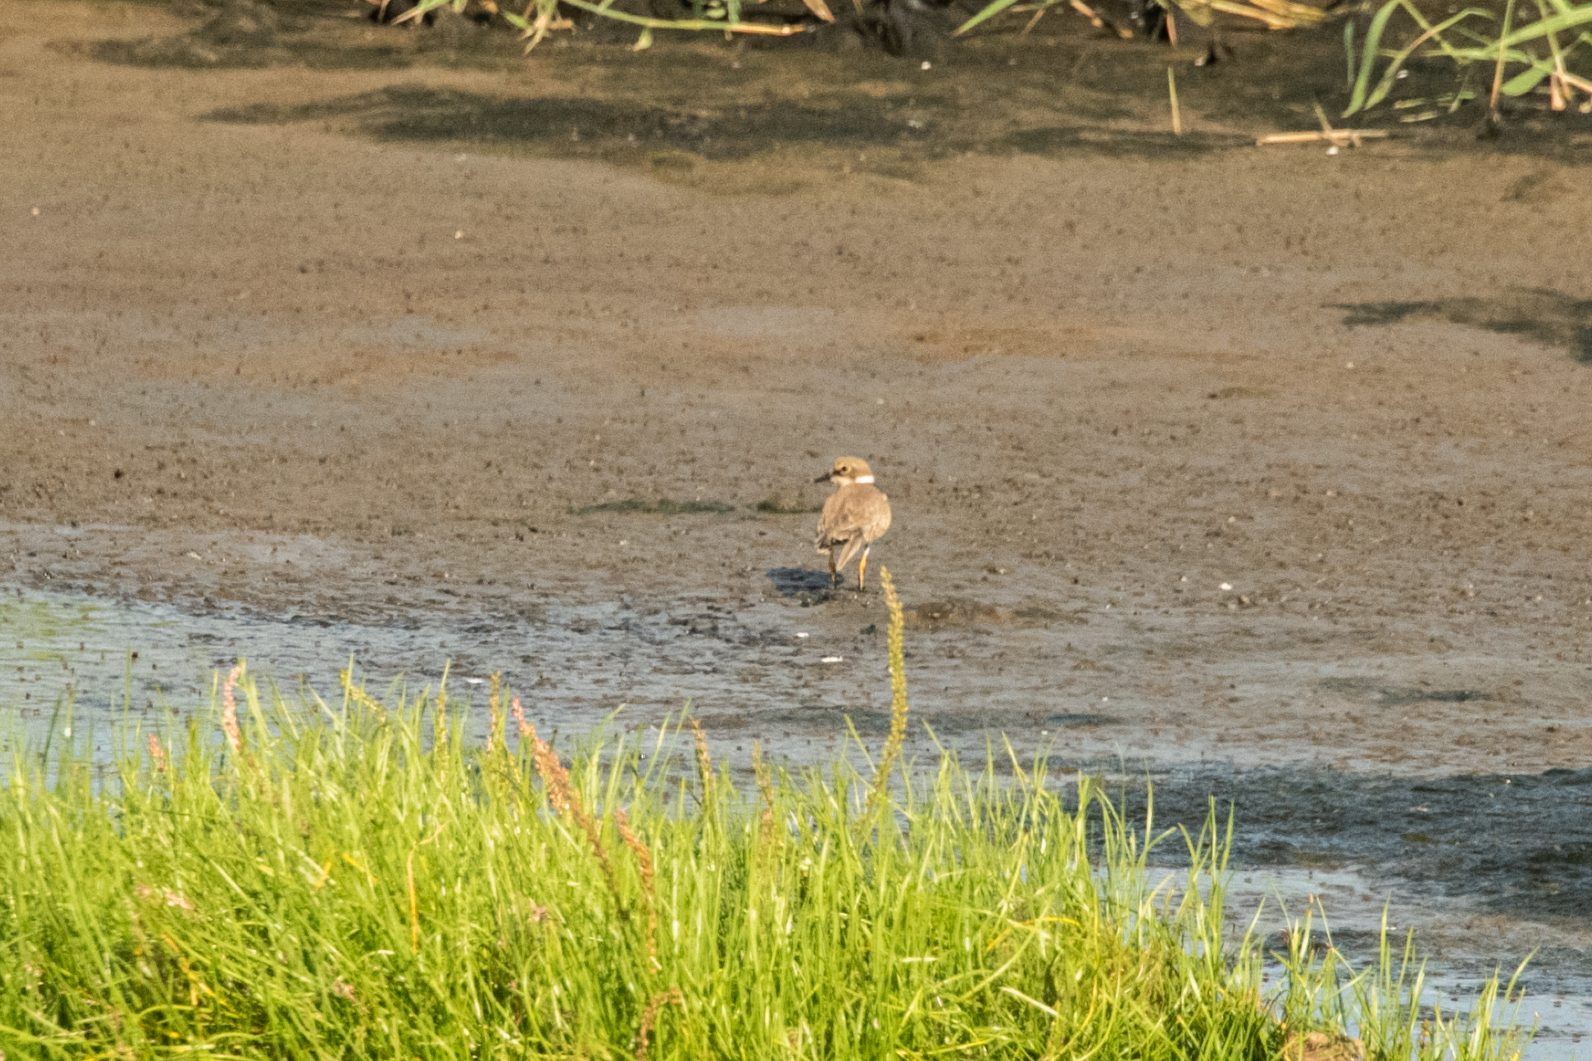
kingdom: Animalia
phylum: Chordata
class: Aves
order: Charadriiformes
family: Charadriidae
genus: Charadrius
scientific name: Charadrius dubius
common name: Little ringed plover
